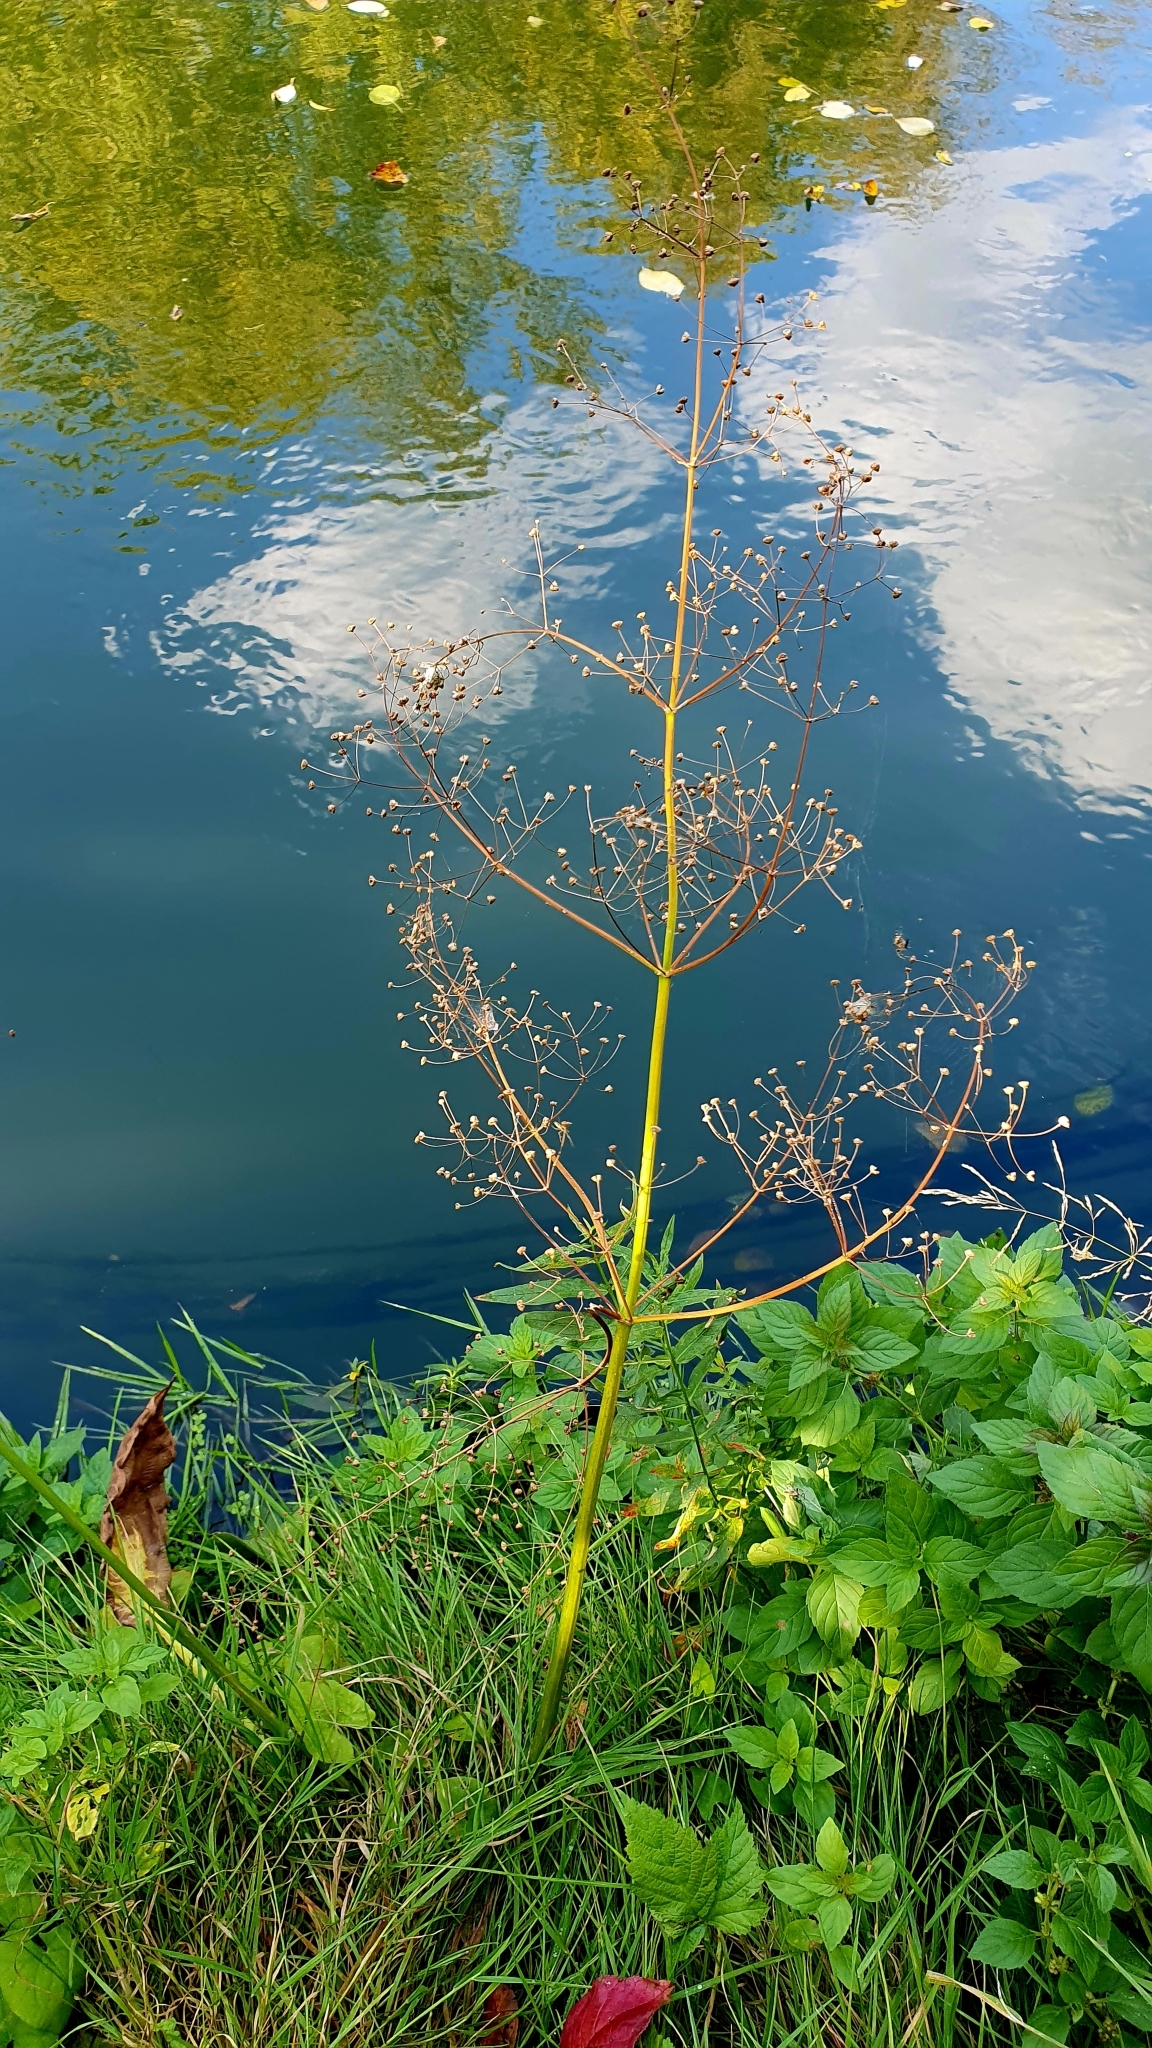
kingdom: Plantae
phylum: Tracheophyta
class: Liliopsida
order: Alismatales
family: Alismataceae
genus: Alisma
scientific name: Alisma plantago-aquatica
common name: Water-plantain
